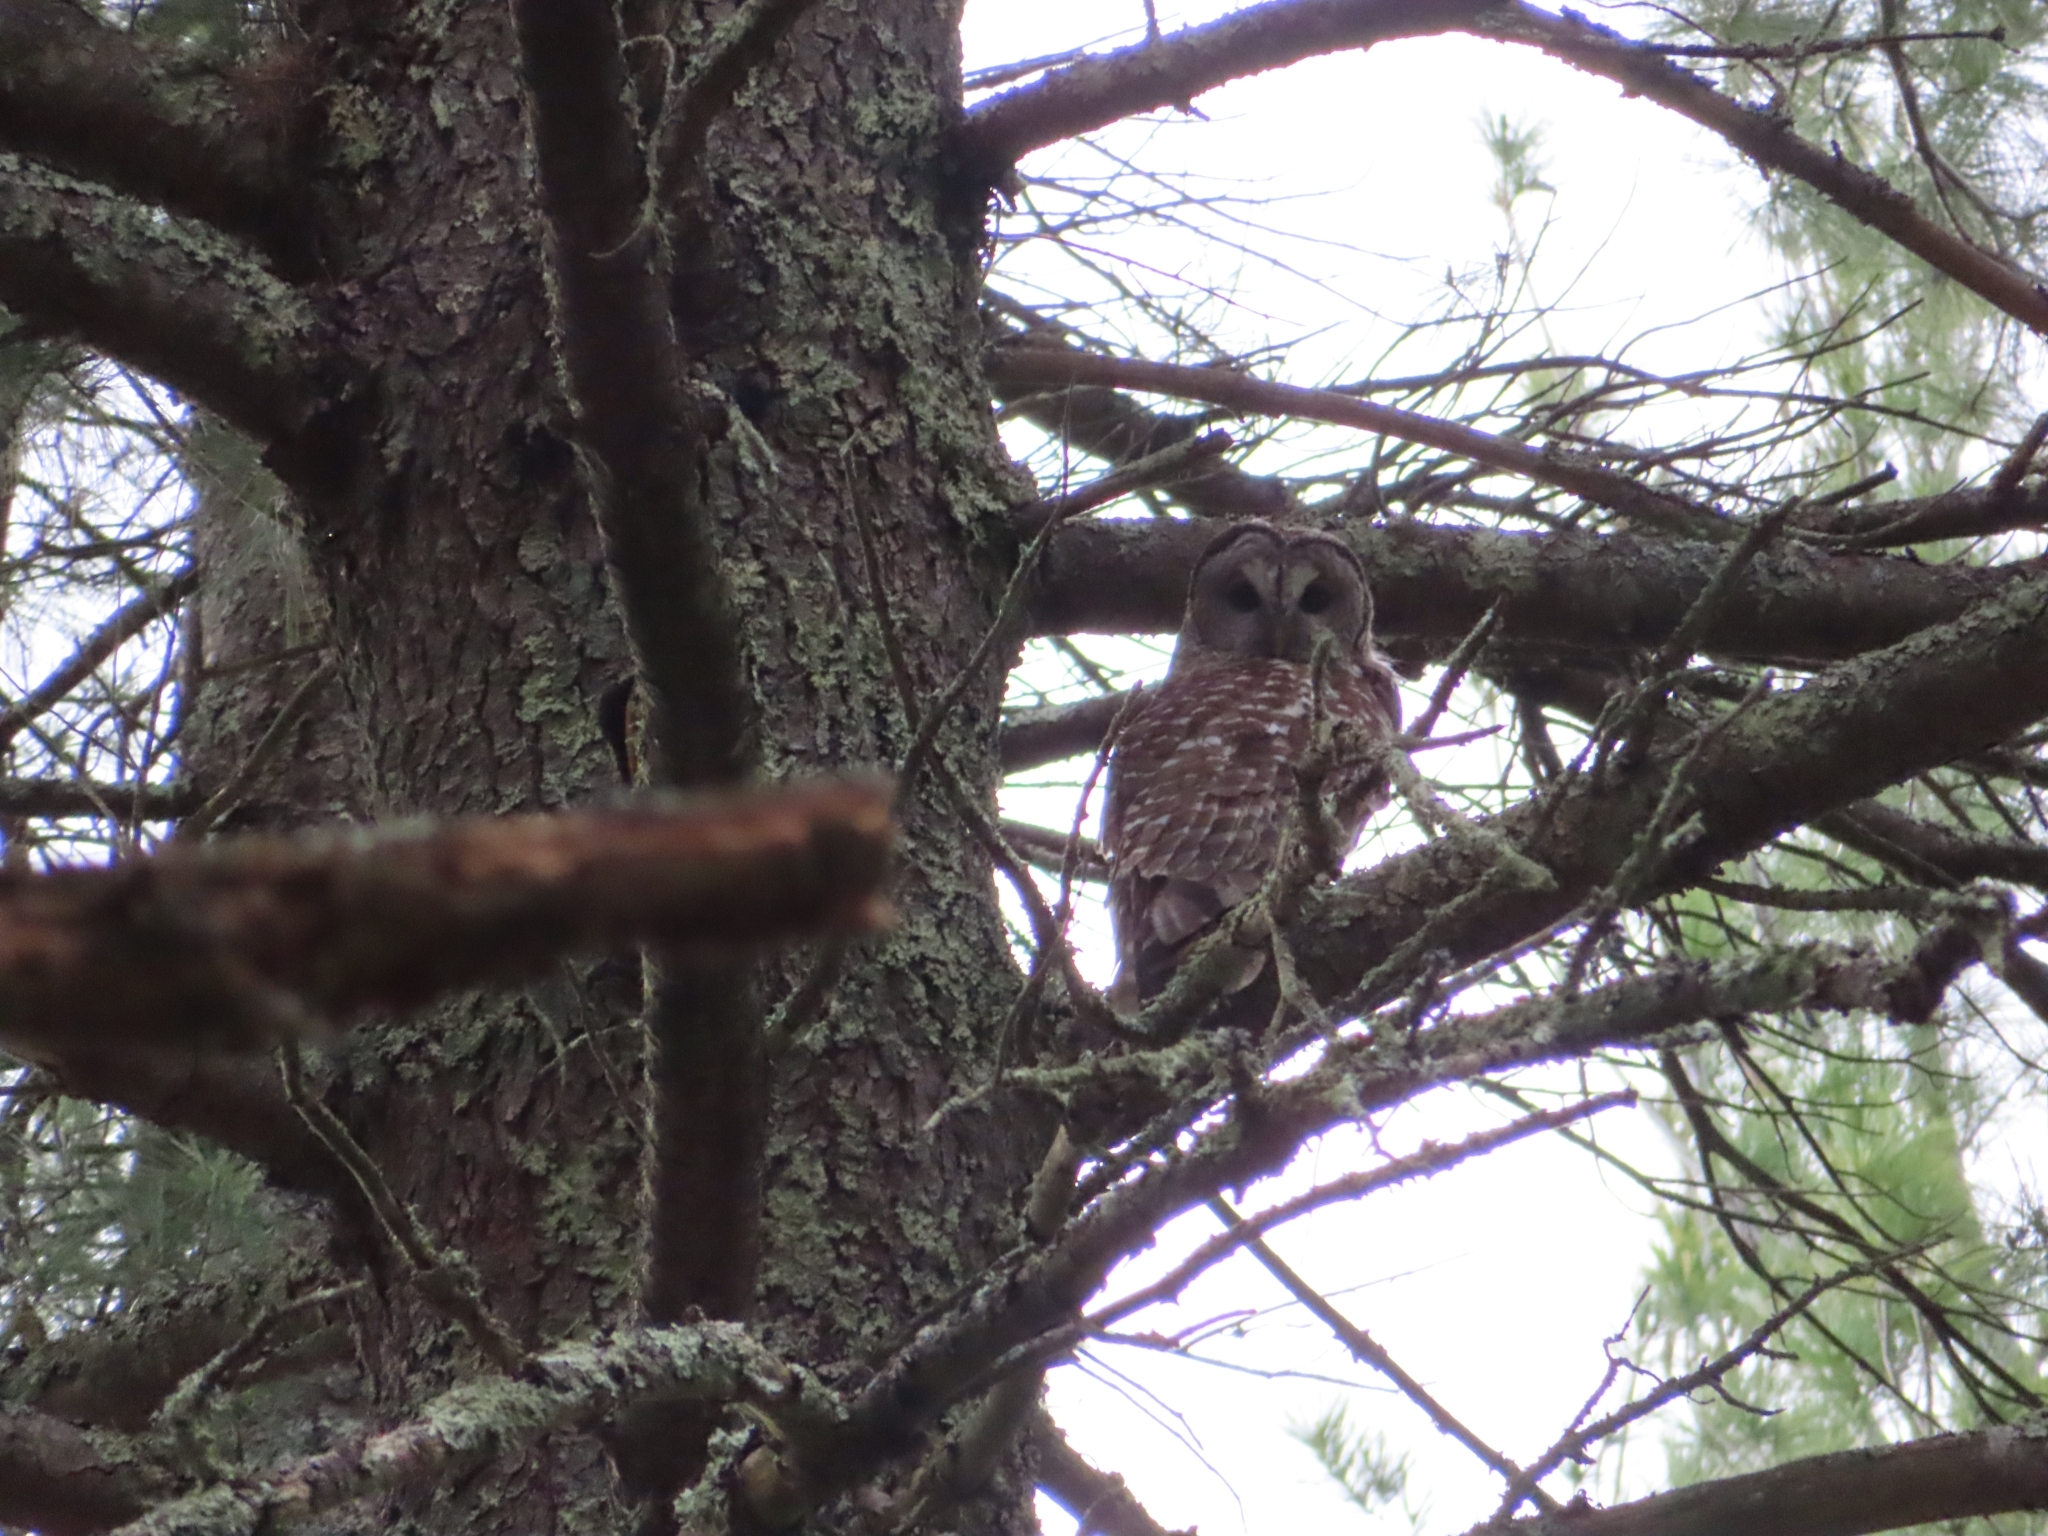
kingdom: Animalia
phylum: Chordata
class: Aves
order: Strigiformes
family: Strigidae
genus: Strix
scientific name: Strix varia
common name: Barred owl
